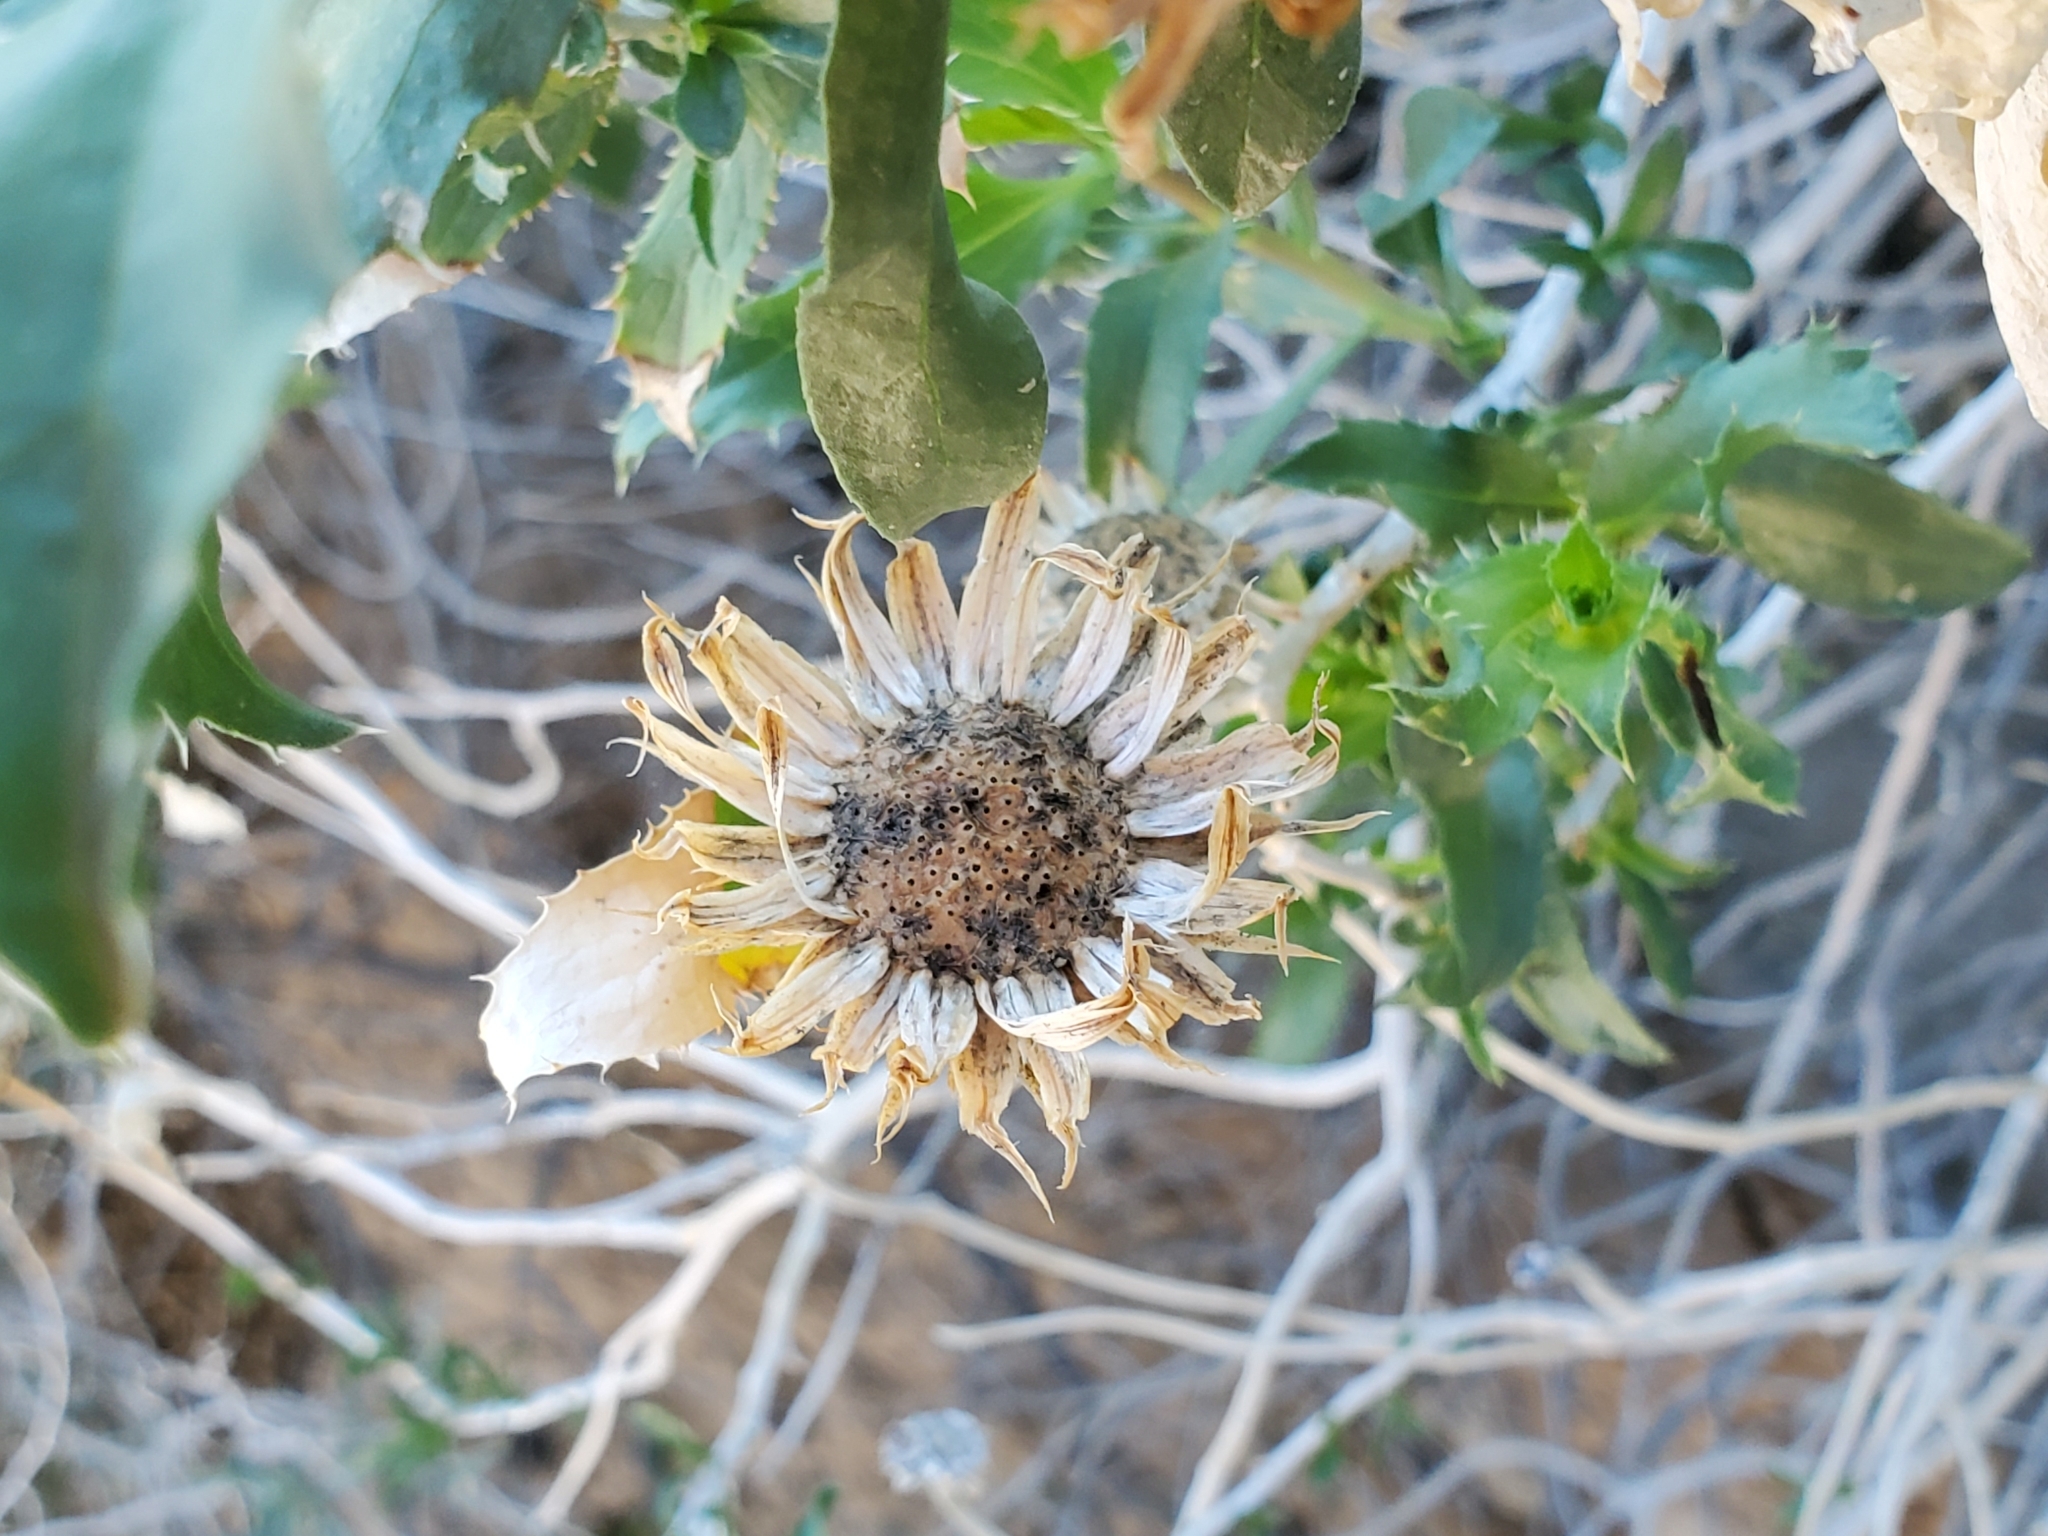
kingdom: Plantae
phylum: Tracheophyta
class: Magnoliopsida
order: Asterales
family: Asteraceae
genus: Xylorhiza
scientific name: Xylorhiza orcuttii
